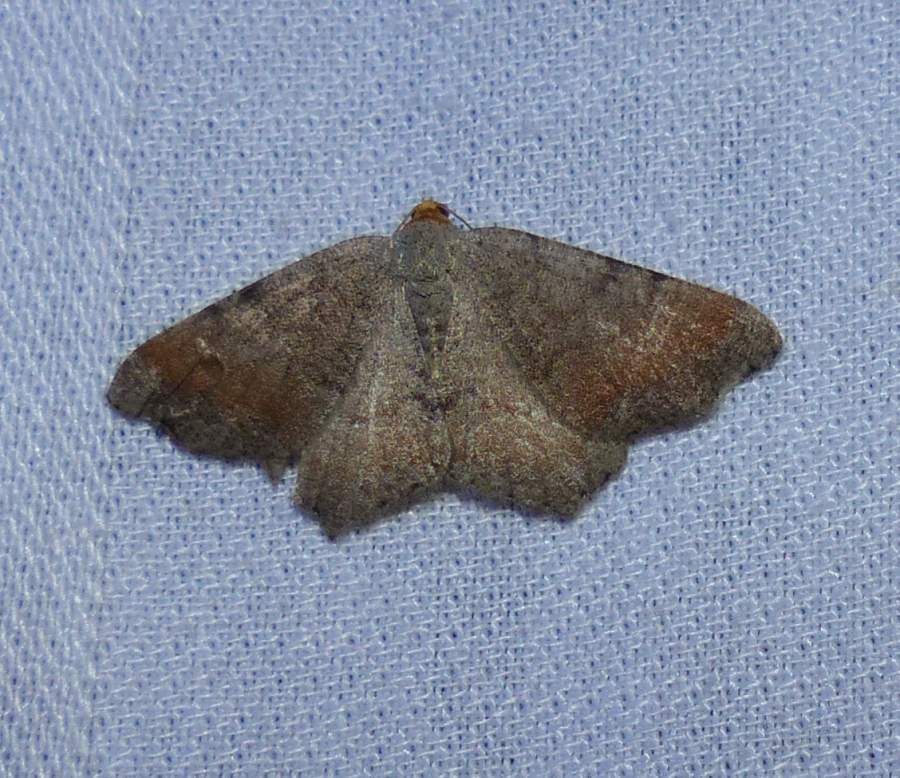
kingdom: Animalia
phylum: Arthropoda
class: Insecta
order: Lepidoptera
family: Geometridae
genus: Macaria
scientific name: Macaria transitaria
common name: Blurry chocolate angle
